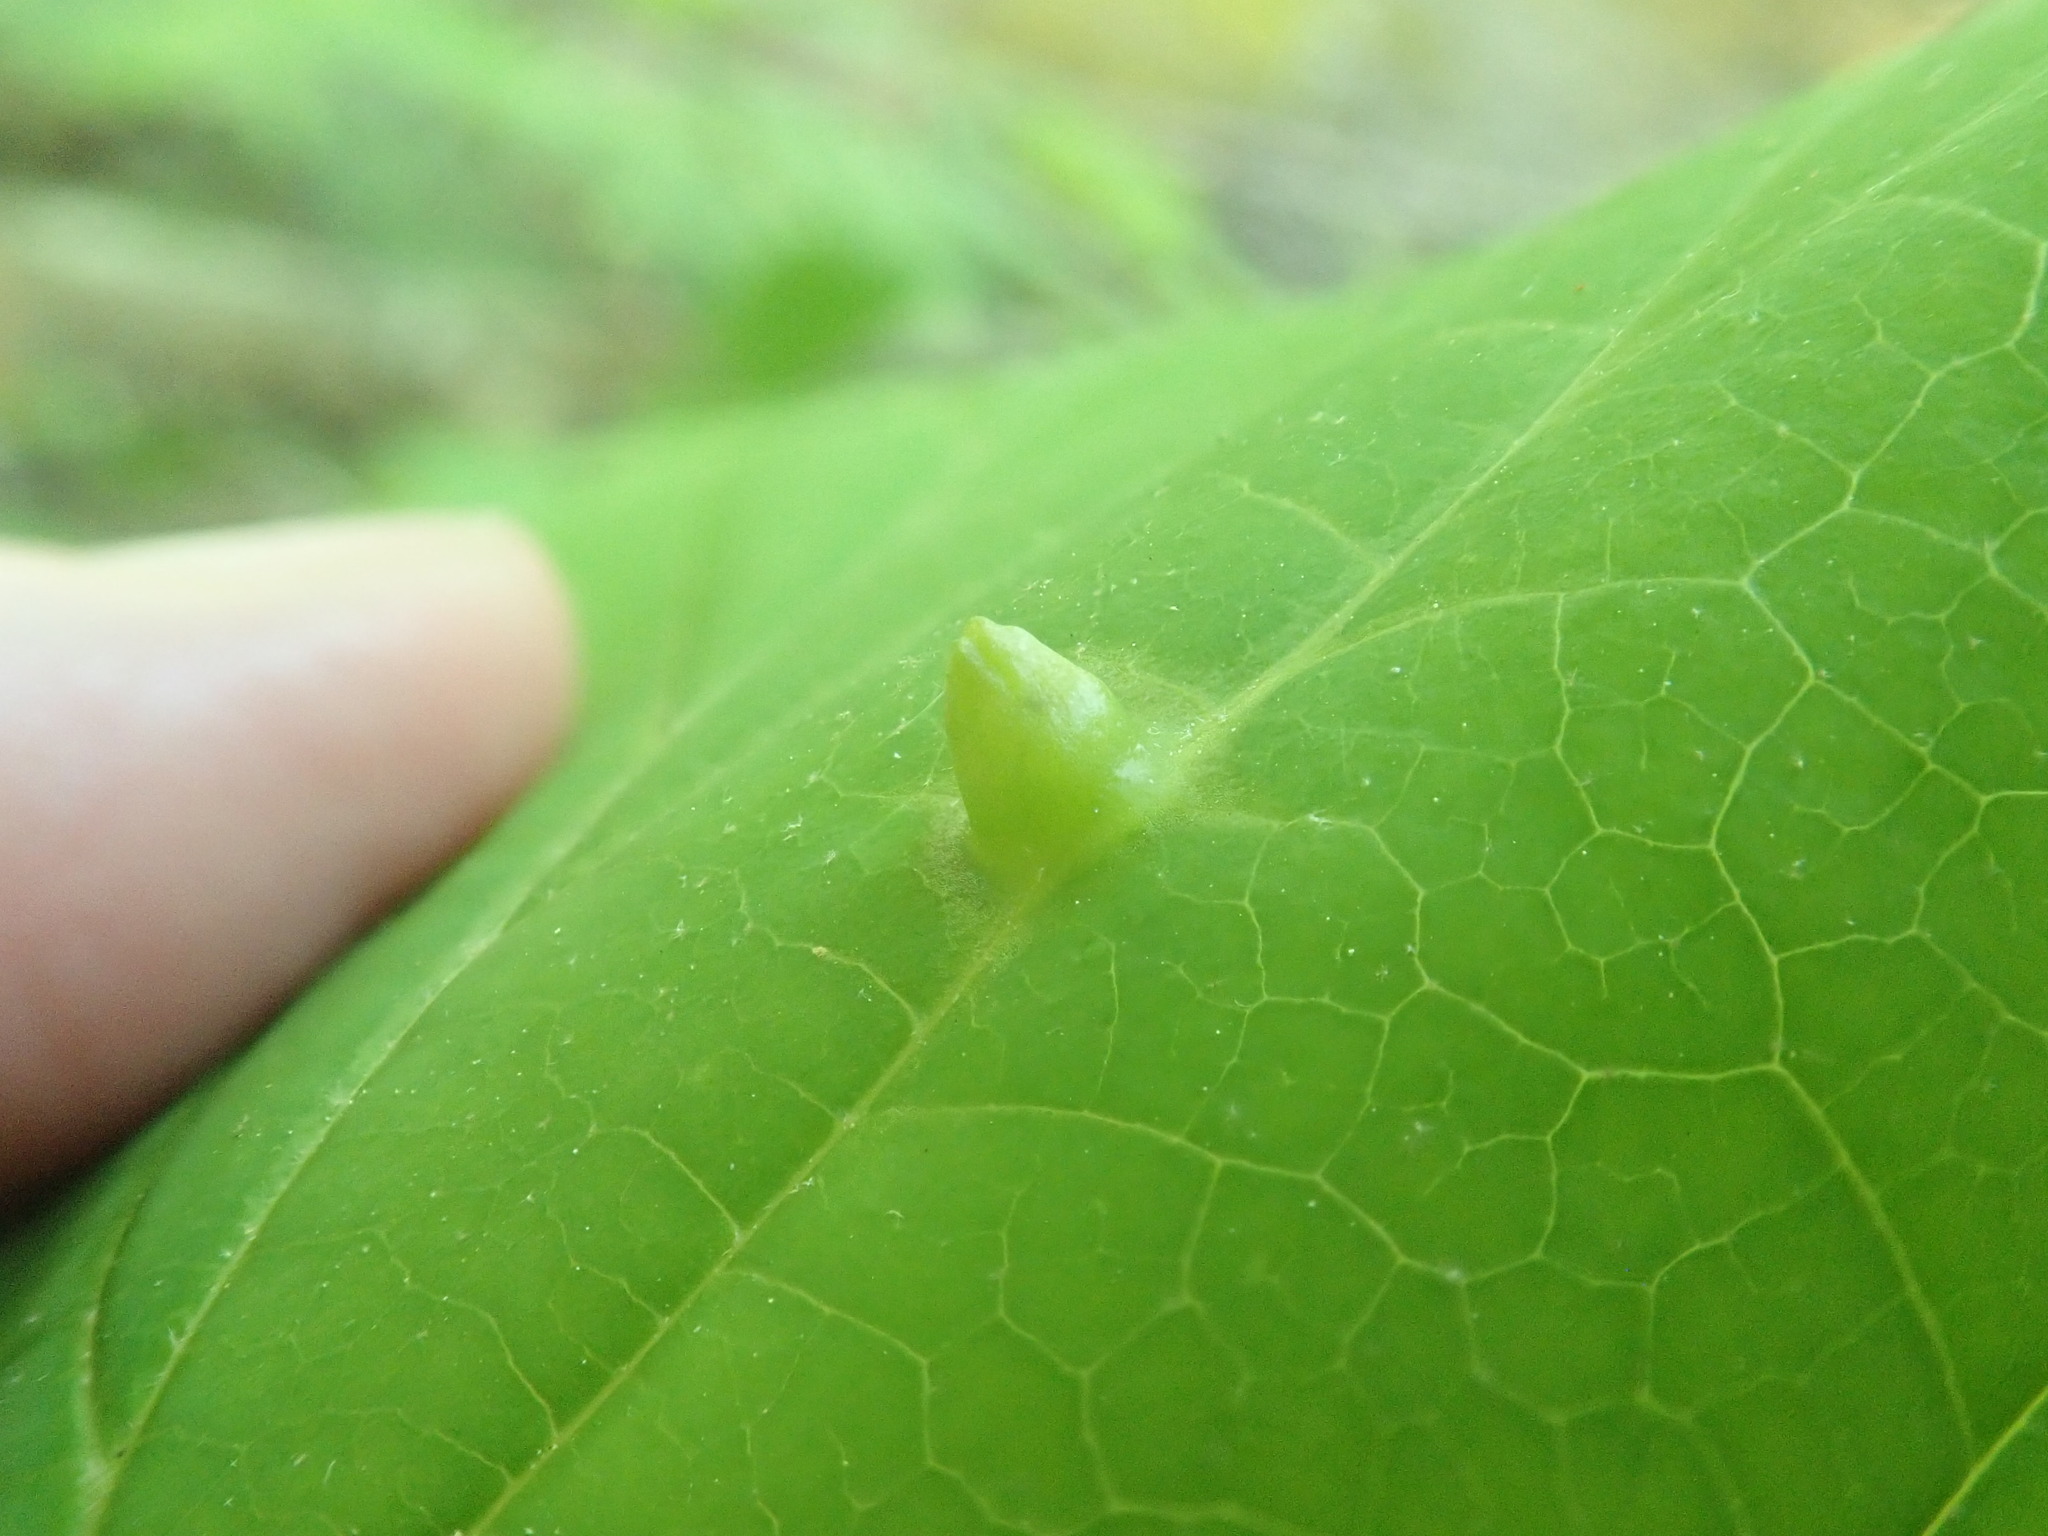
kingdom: Animalia
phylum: Arthropoda
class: Insecta
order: Hemiptera
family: Aphididae
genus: Hormaphis
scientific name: Hormaphis hamamelidis
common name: Witch-hazel cone gall aphid
